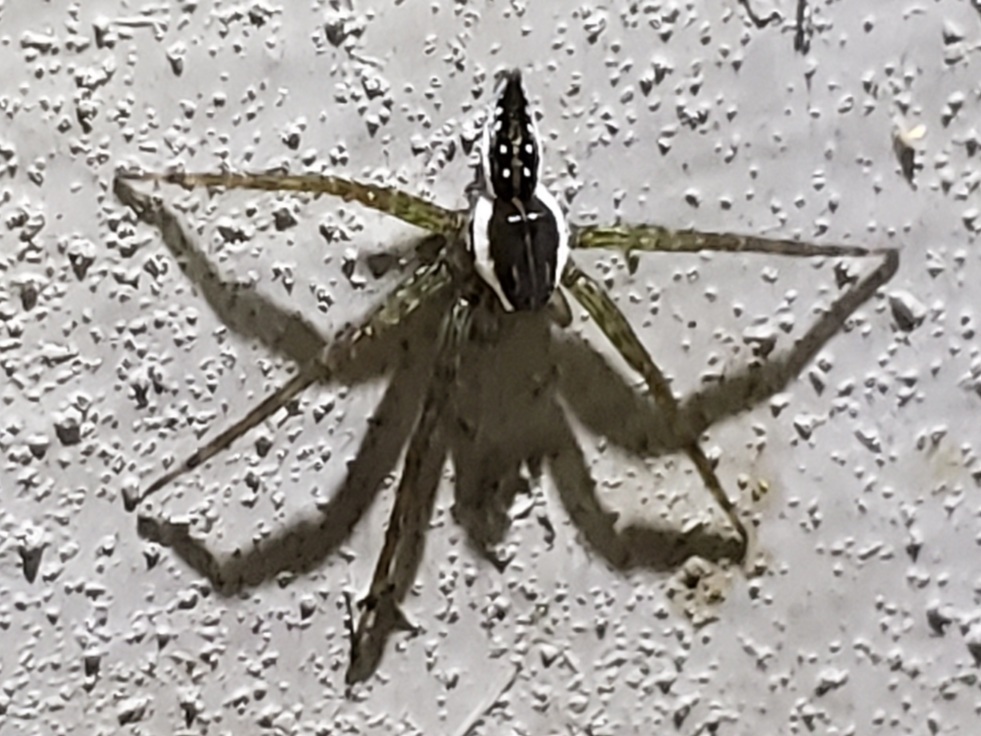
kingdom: Animalia
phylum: Arthropoda
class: Arachnida
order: Araneae
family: Pisauridae
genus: Dolomedes
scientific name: Dolomedes triton
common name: Six-spotted fishing spider
